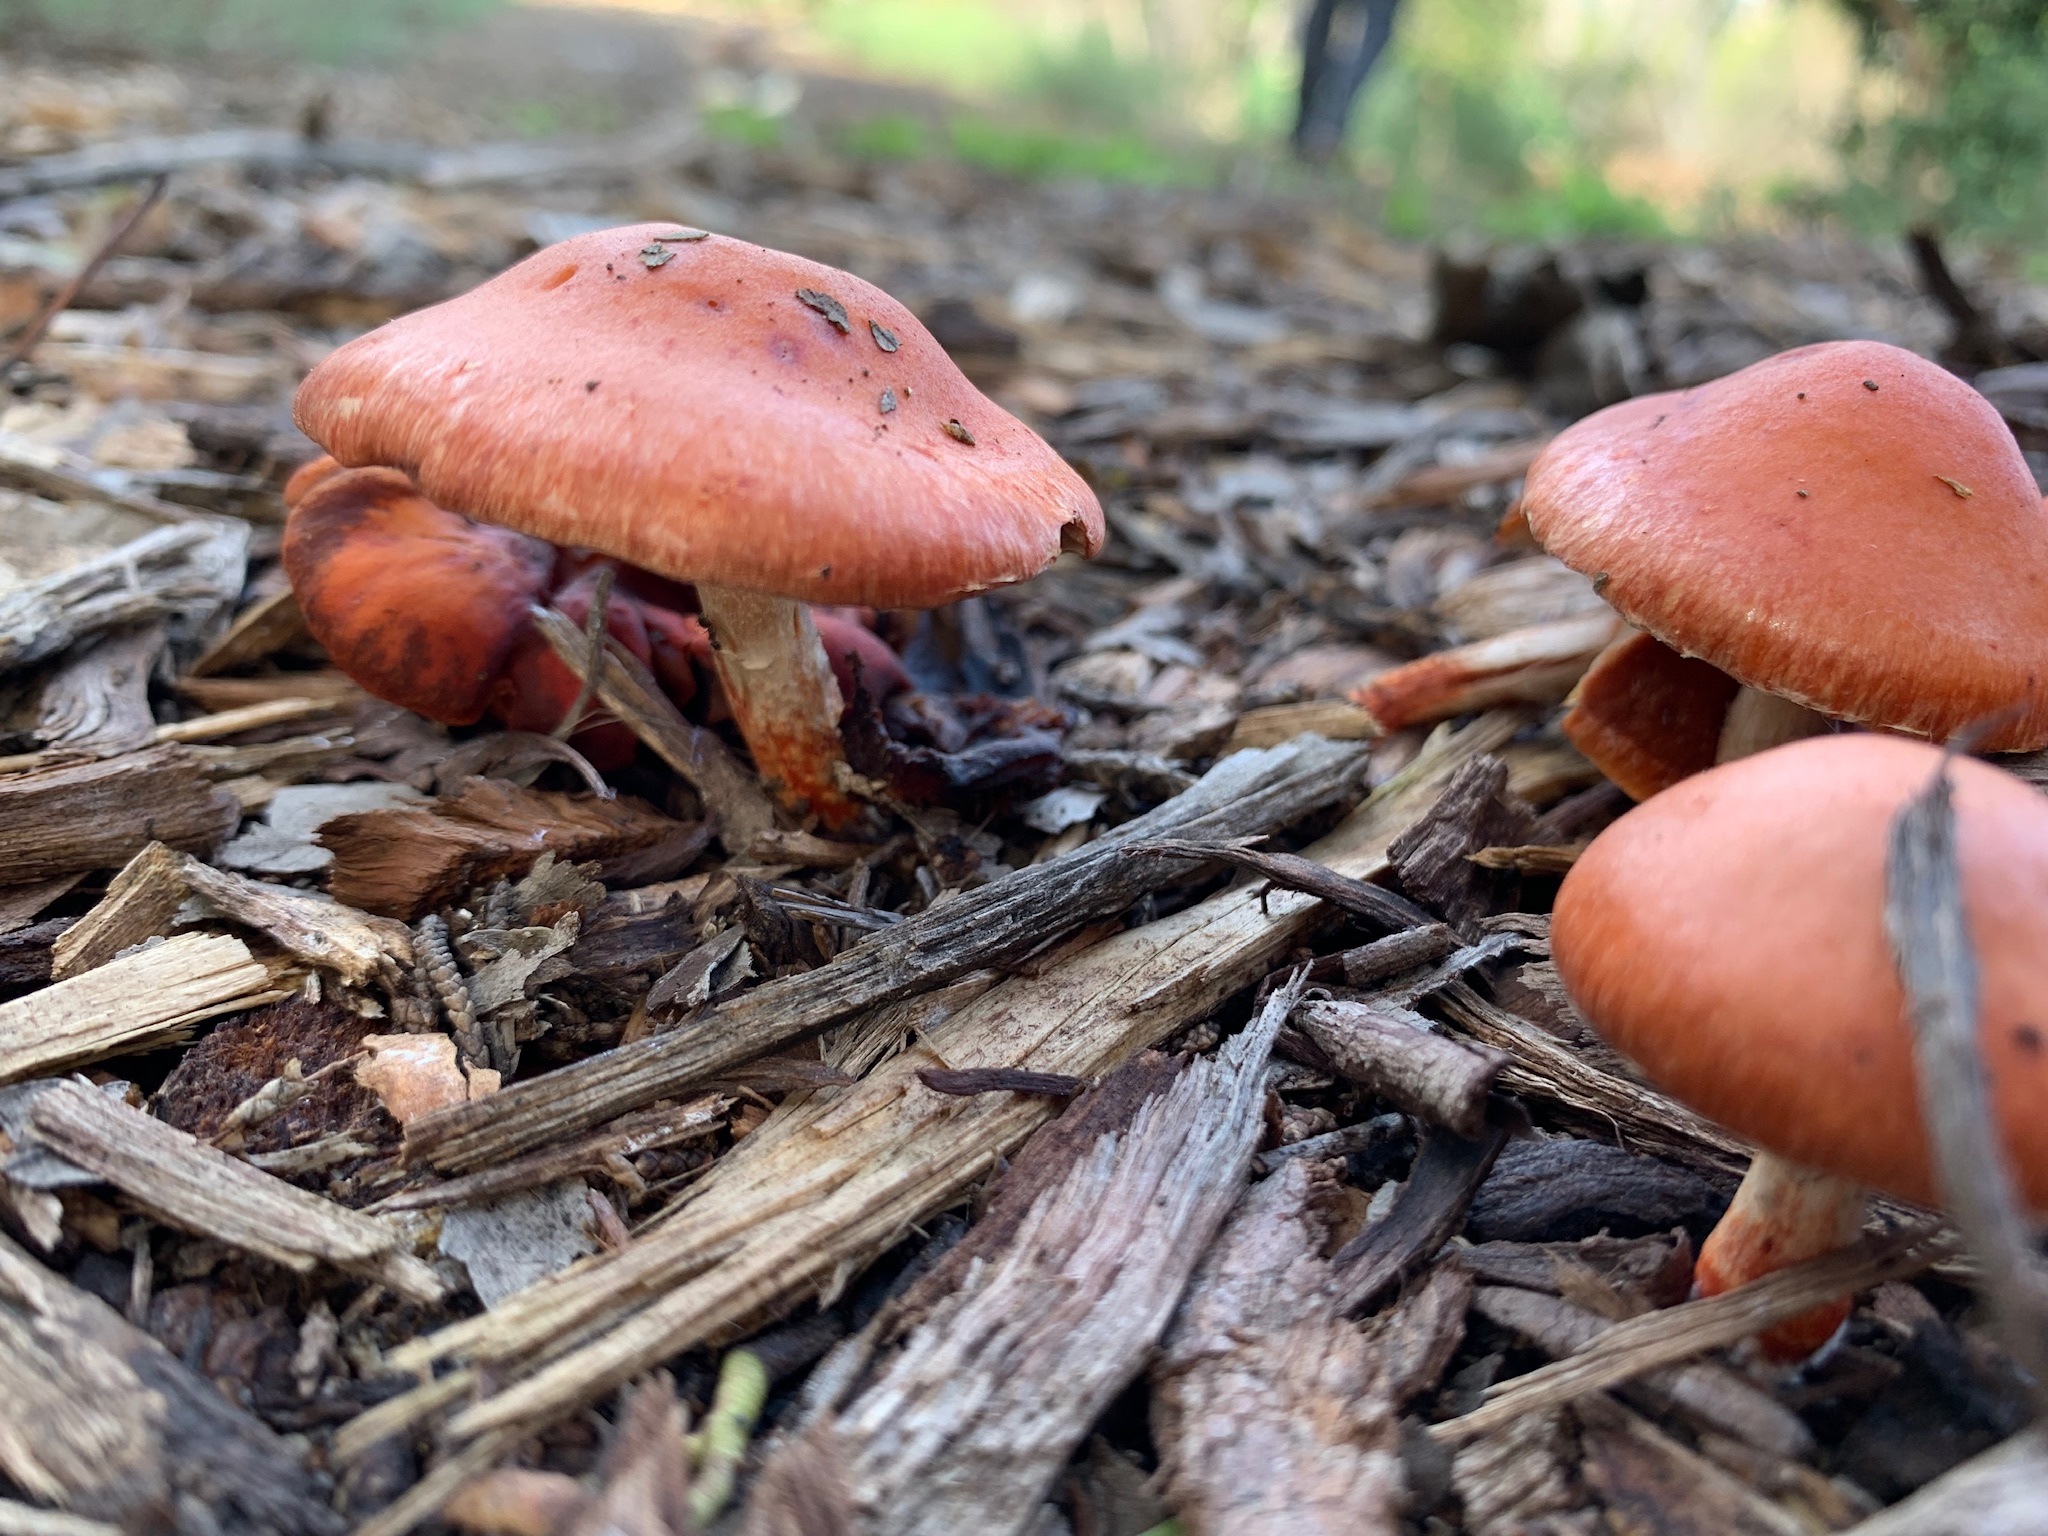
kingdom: Fungi
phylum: Basidiomycota
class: Agaricomycetes
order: Agaricales
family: Strophariaceae
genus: Leratiomyces
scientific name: Leratiomyces ceres
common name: Redlead roundhead
